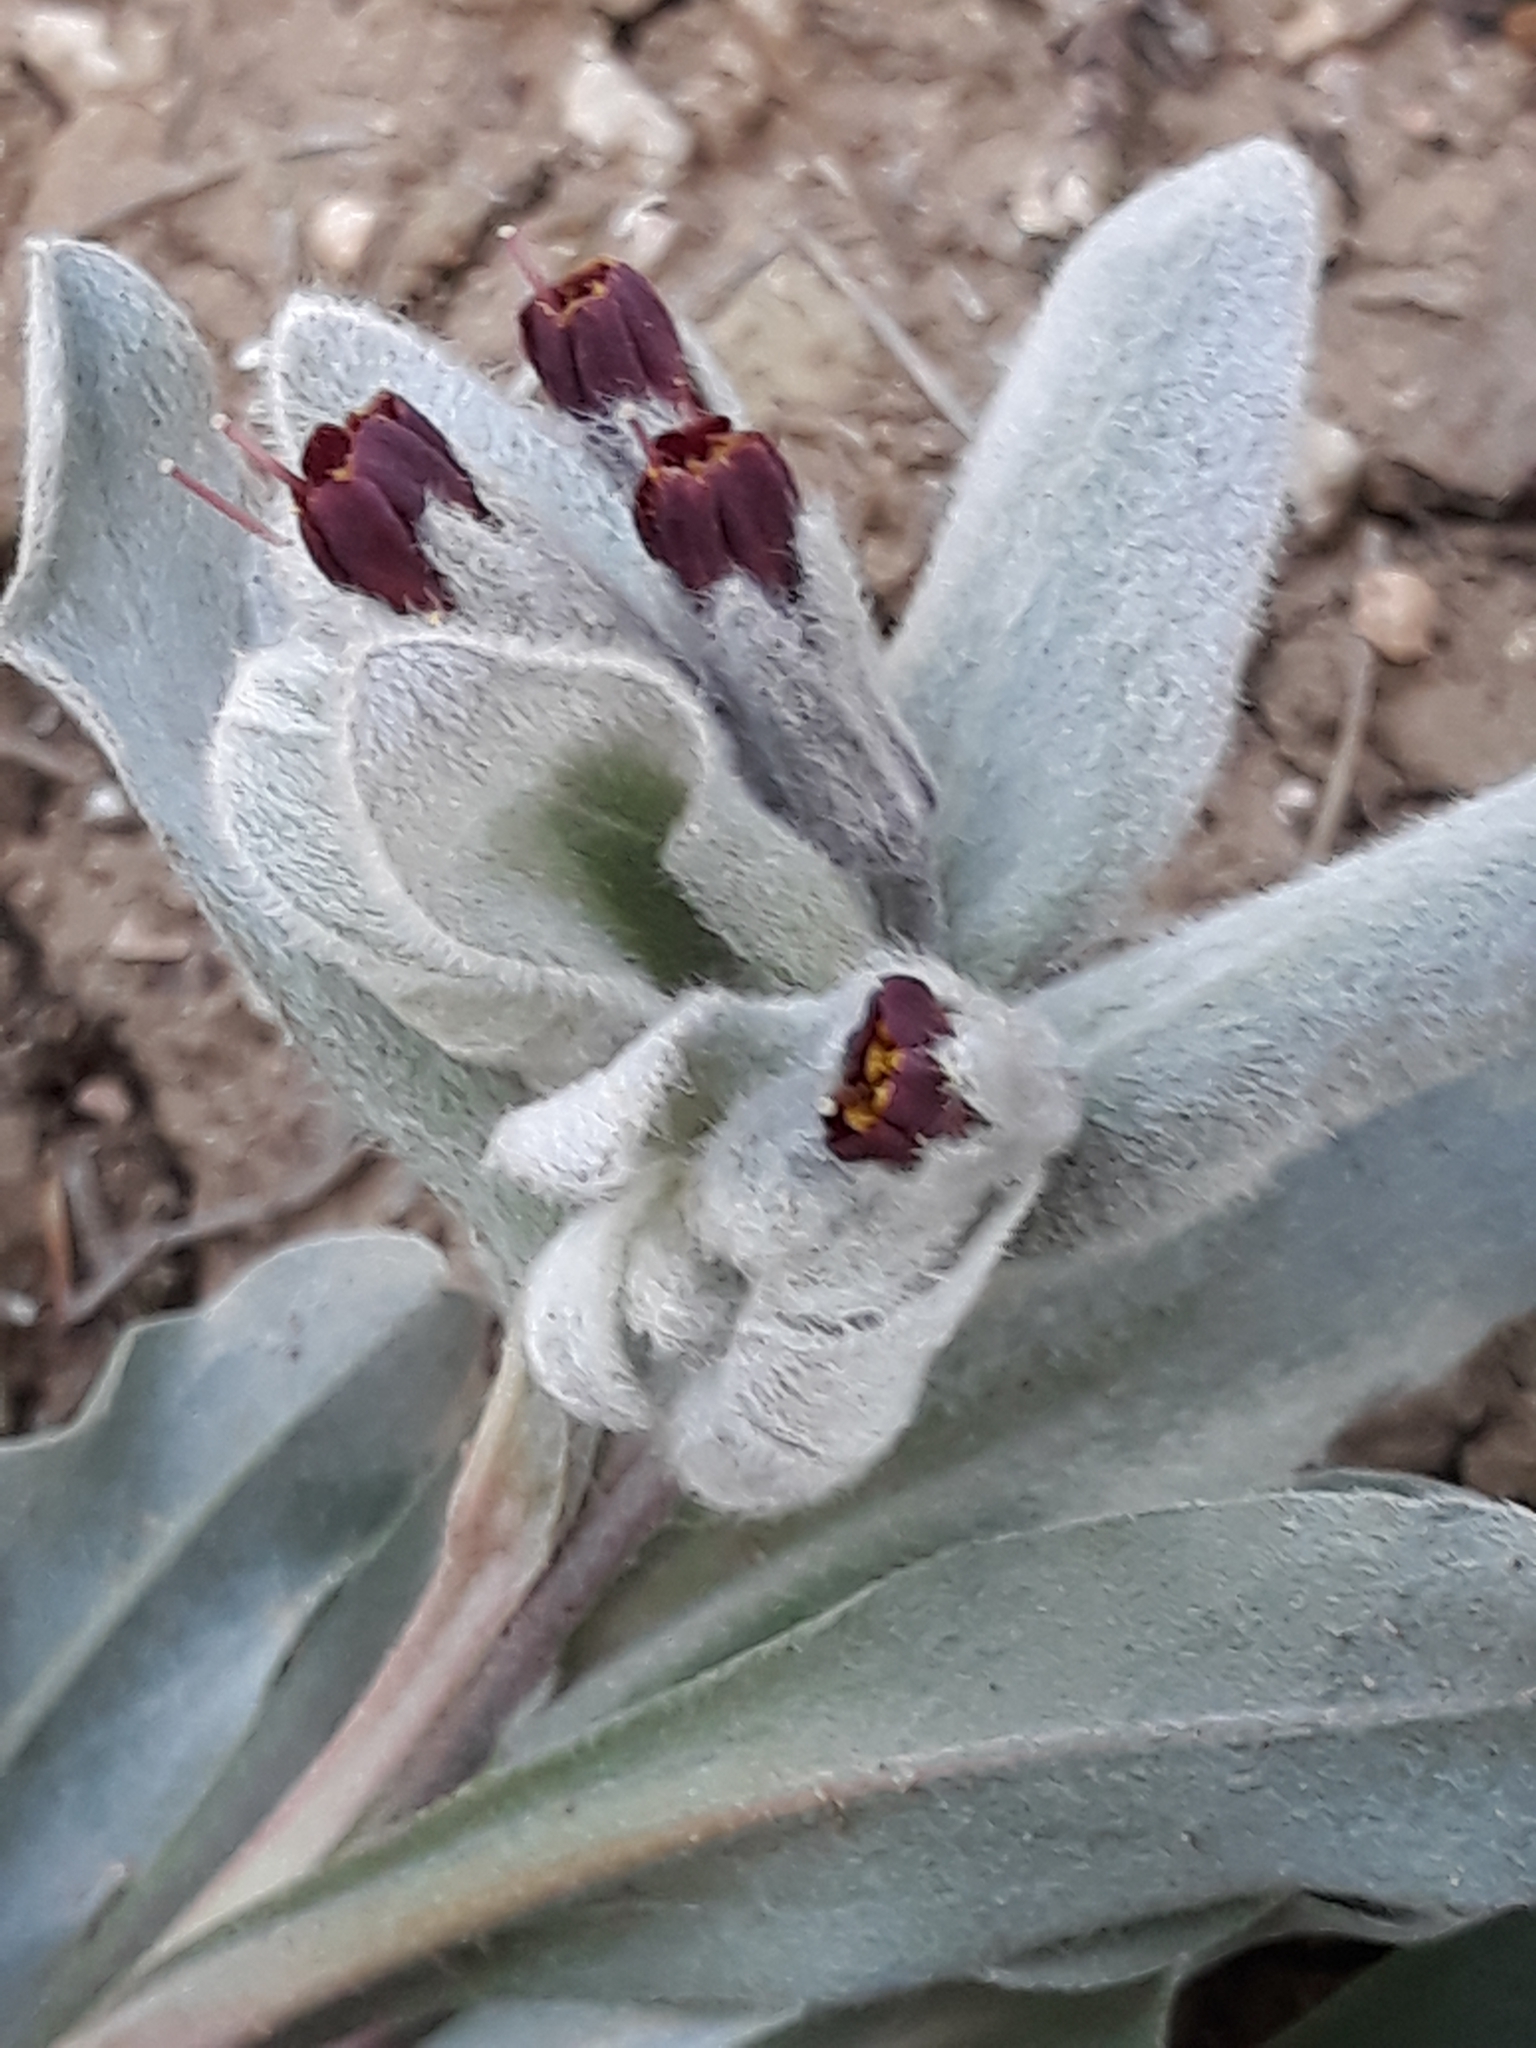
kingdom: Plantae
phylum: Tracheophyta
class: Magnoliopsida
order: Boraginales
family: Boraginaceae
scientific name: Boraginaceae
